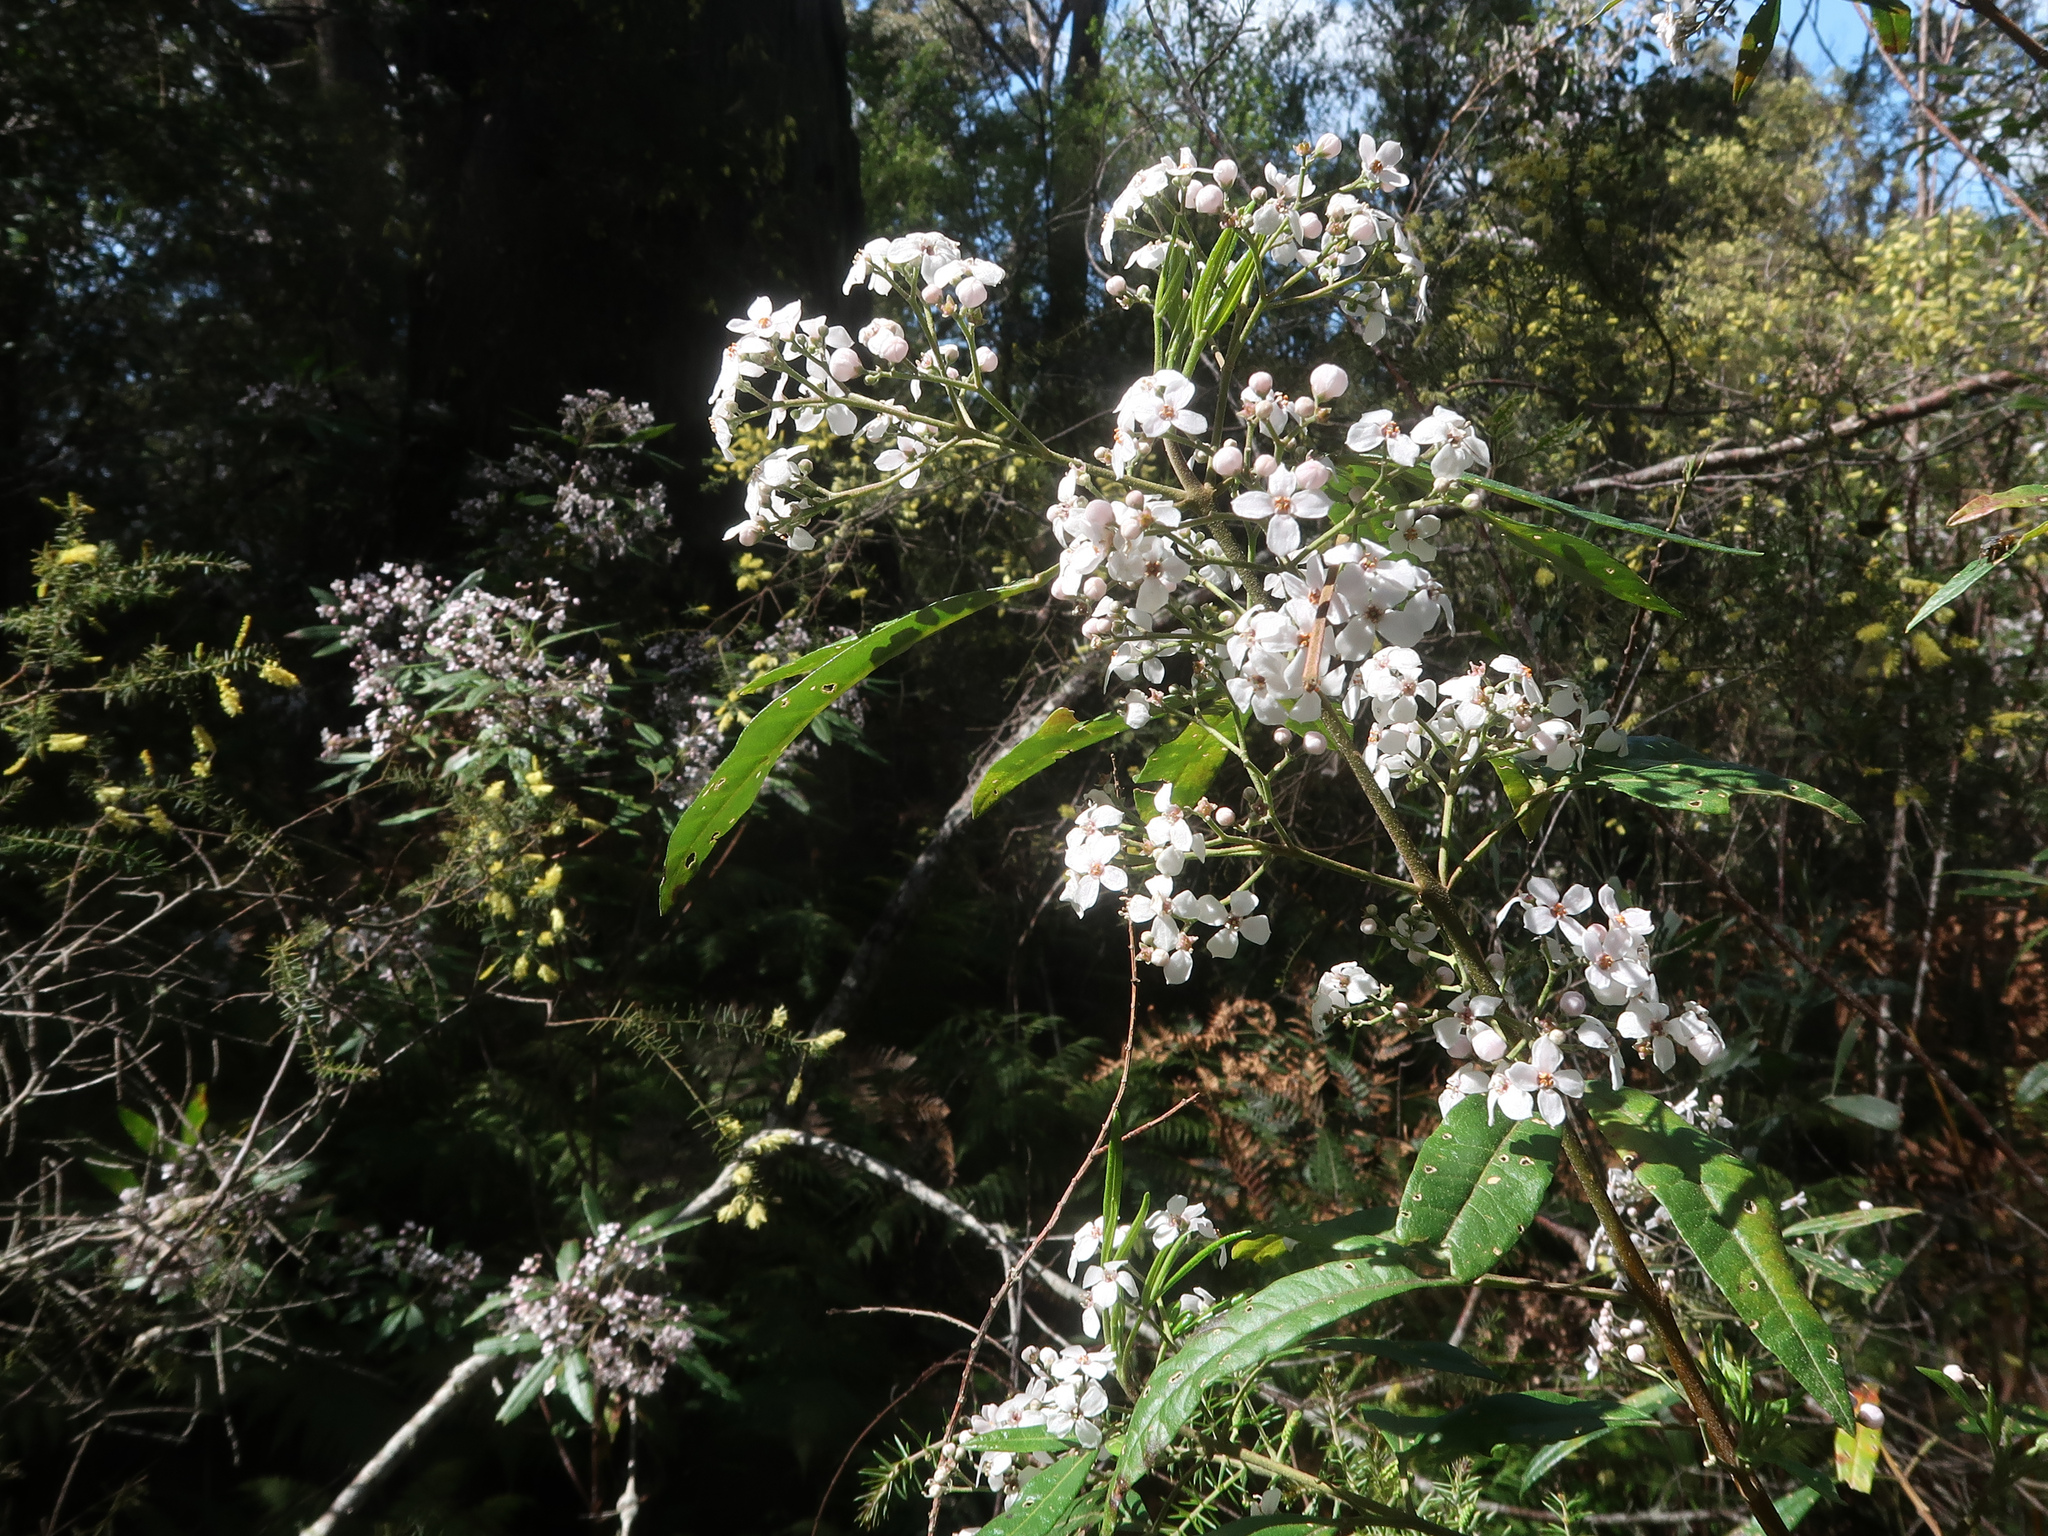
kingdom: Plantae
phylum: Tracheophyta
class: Magnoliopsida
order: Sapindales
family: Rutaceae
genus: Zieria
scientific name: Zieria arborescens
